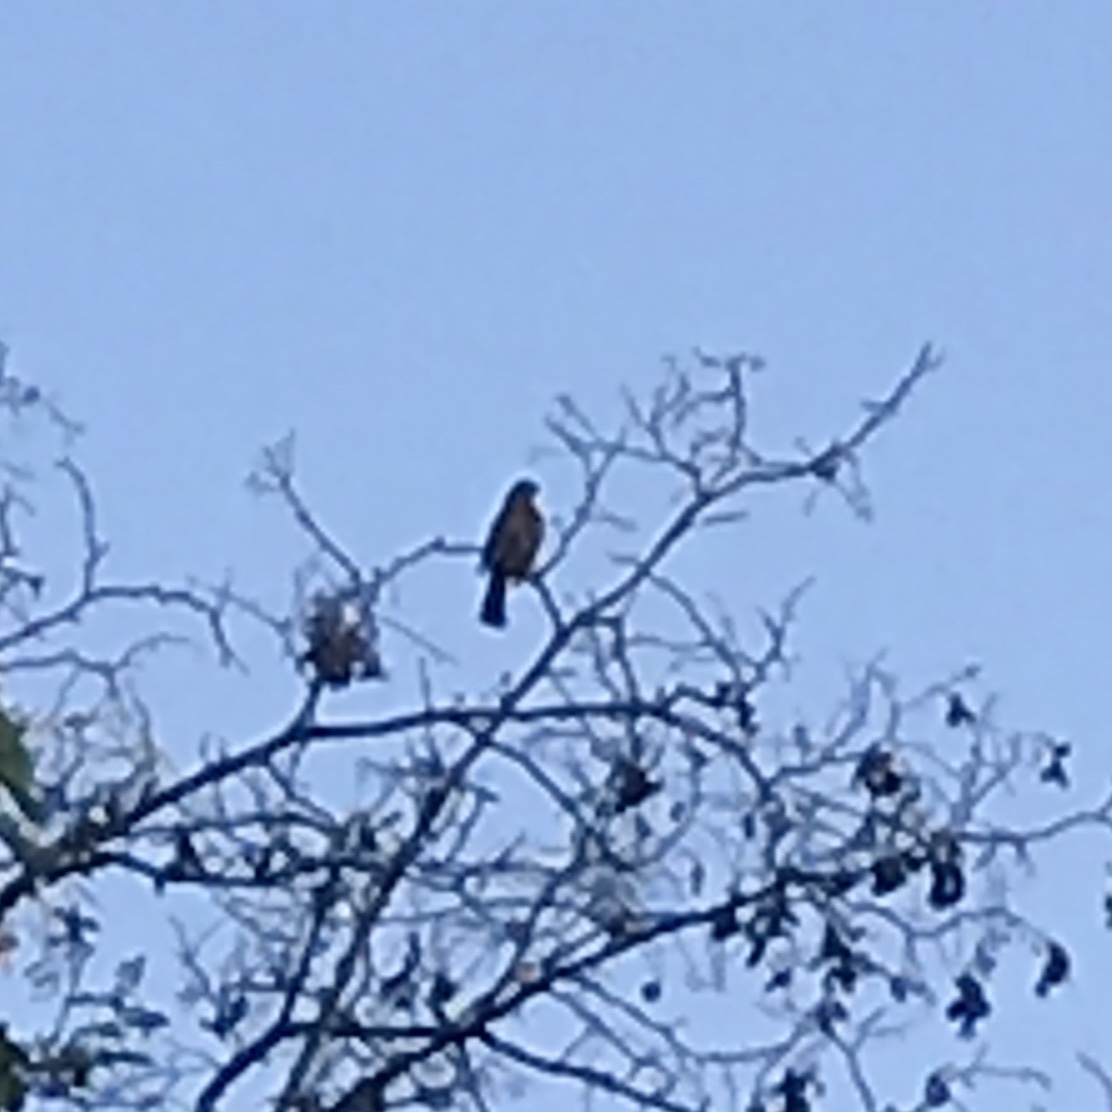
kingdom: Animalia
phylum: Chordata
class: Aves
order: Passeriformes
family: Cotingidae
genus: Phytotoma
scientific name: Phytotoma rara
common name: Rufous-tailed plantcutter
